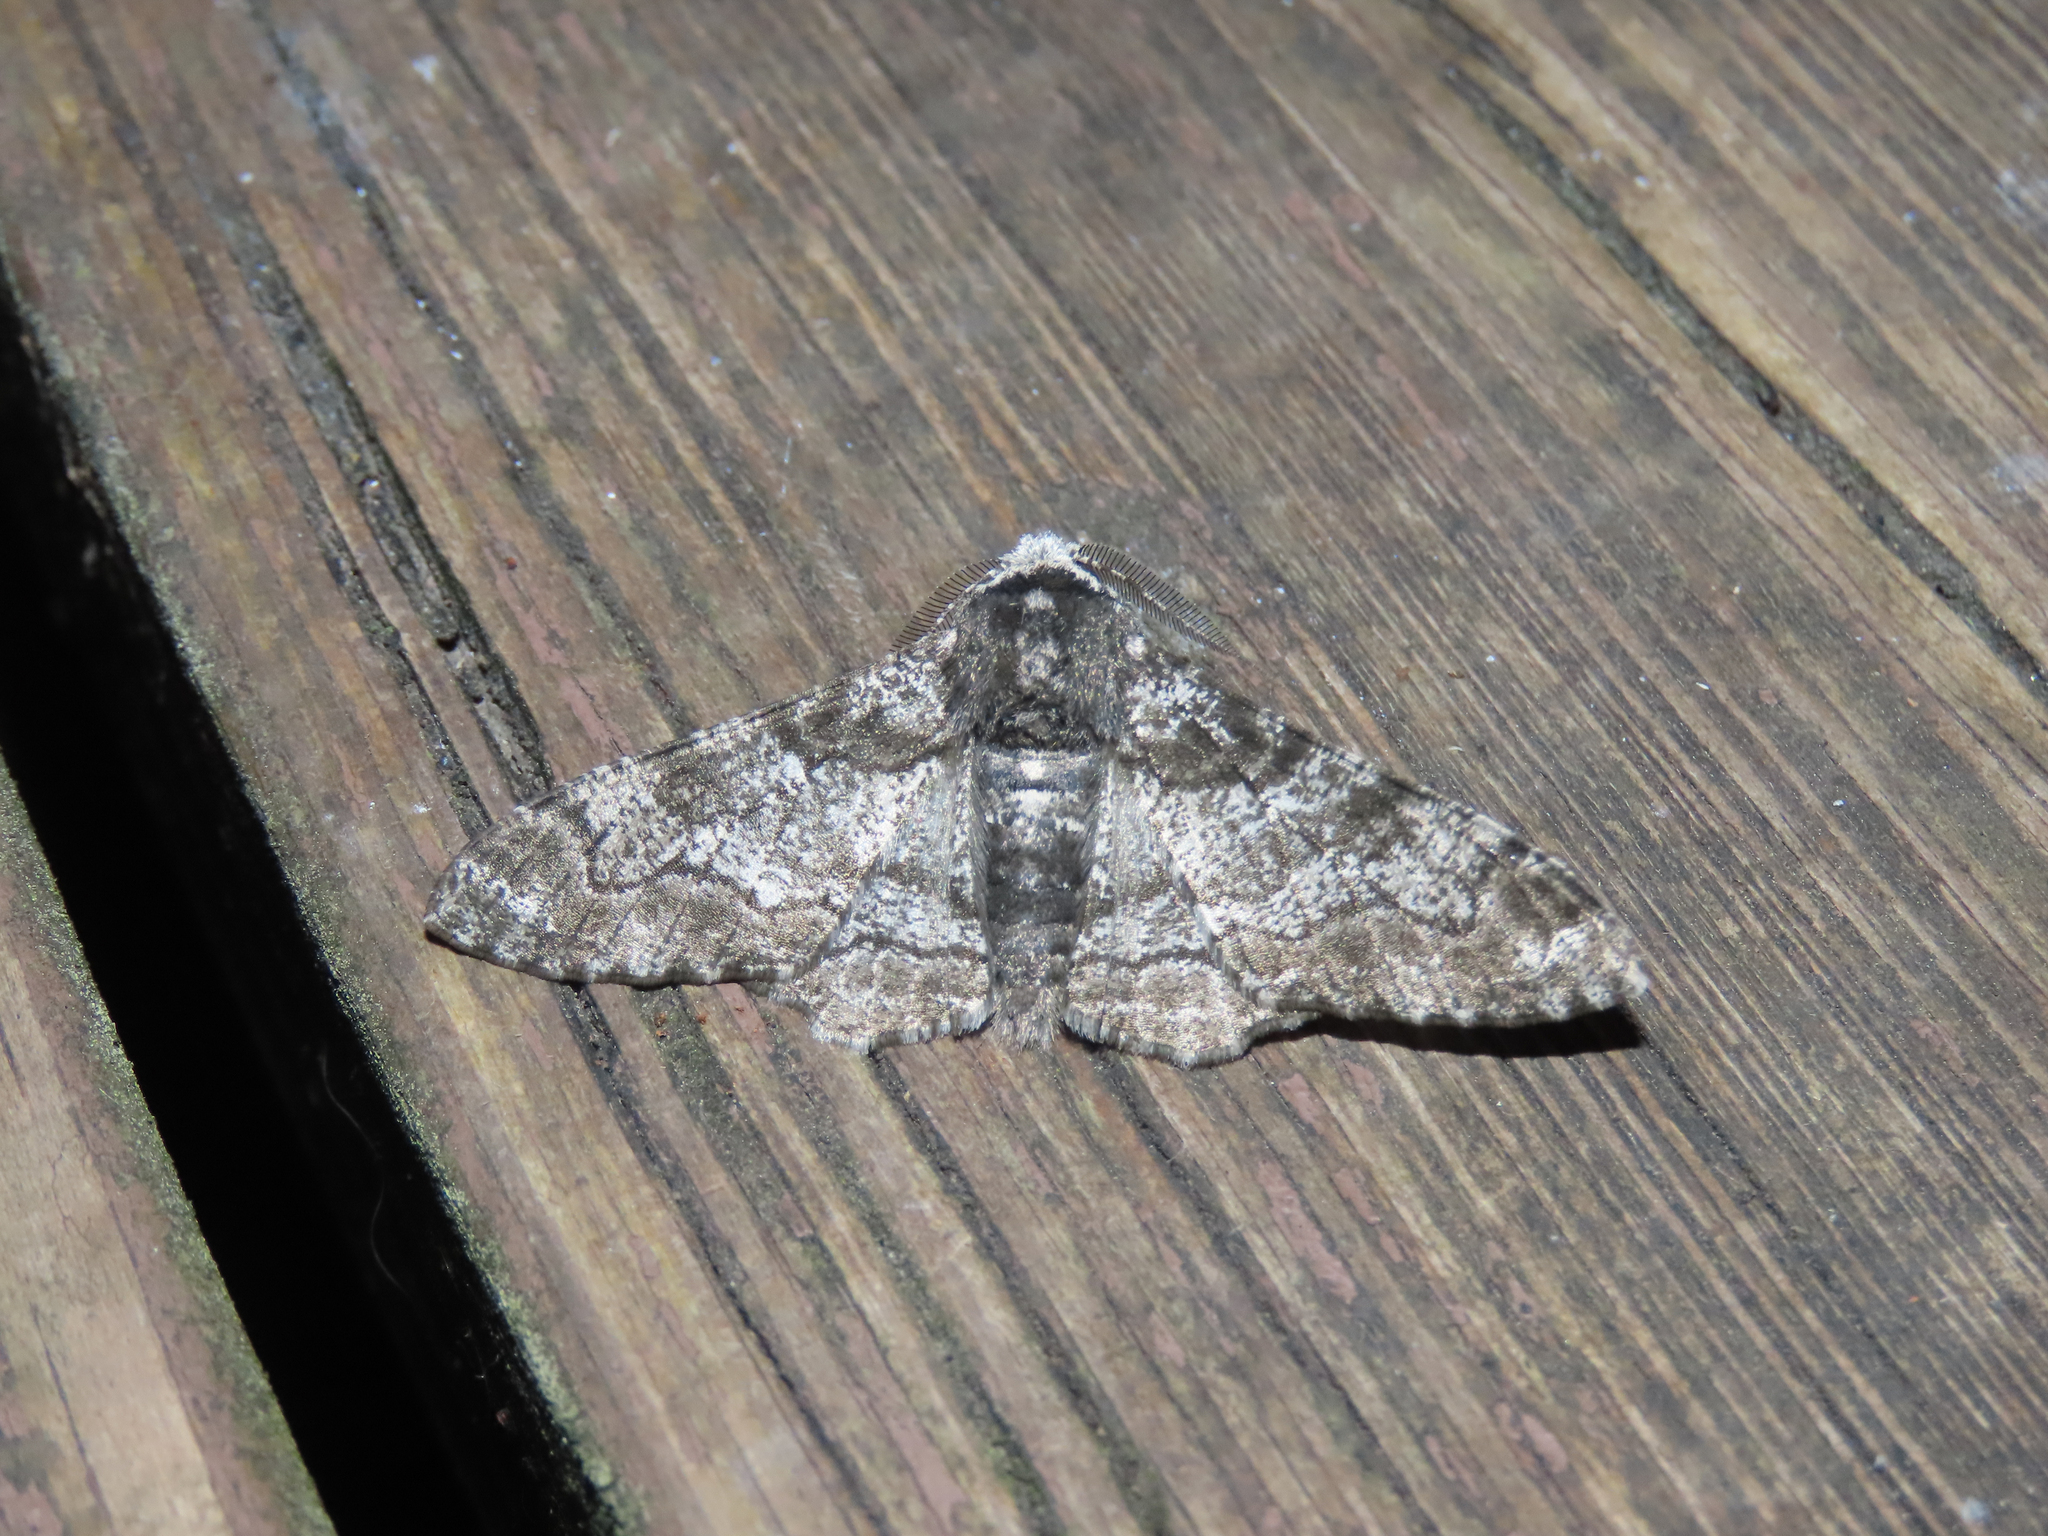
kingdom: Animalia
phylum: Arthropoda
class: Insecta
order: Lepidoptera
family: Geometridae
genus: Biston
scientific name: Biston betularia
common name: Peppered moth
